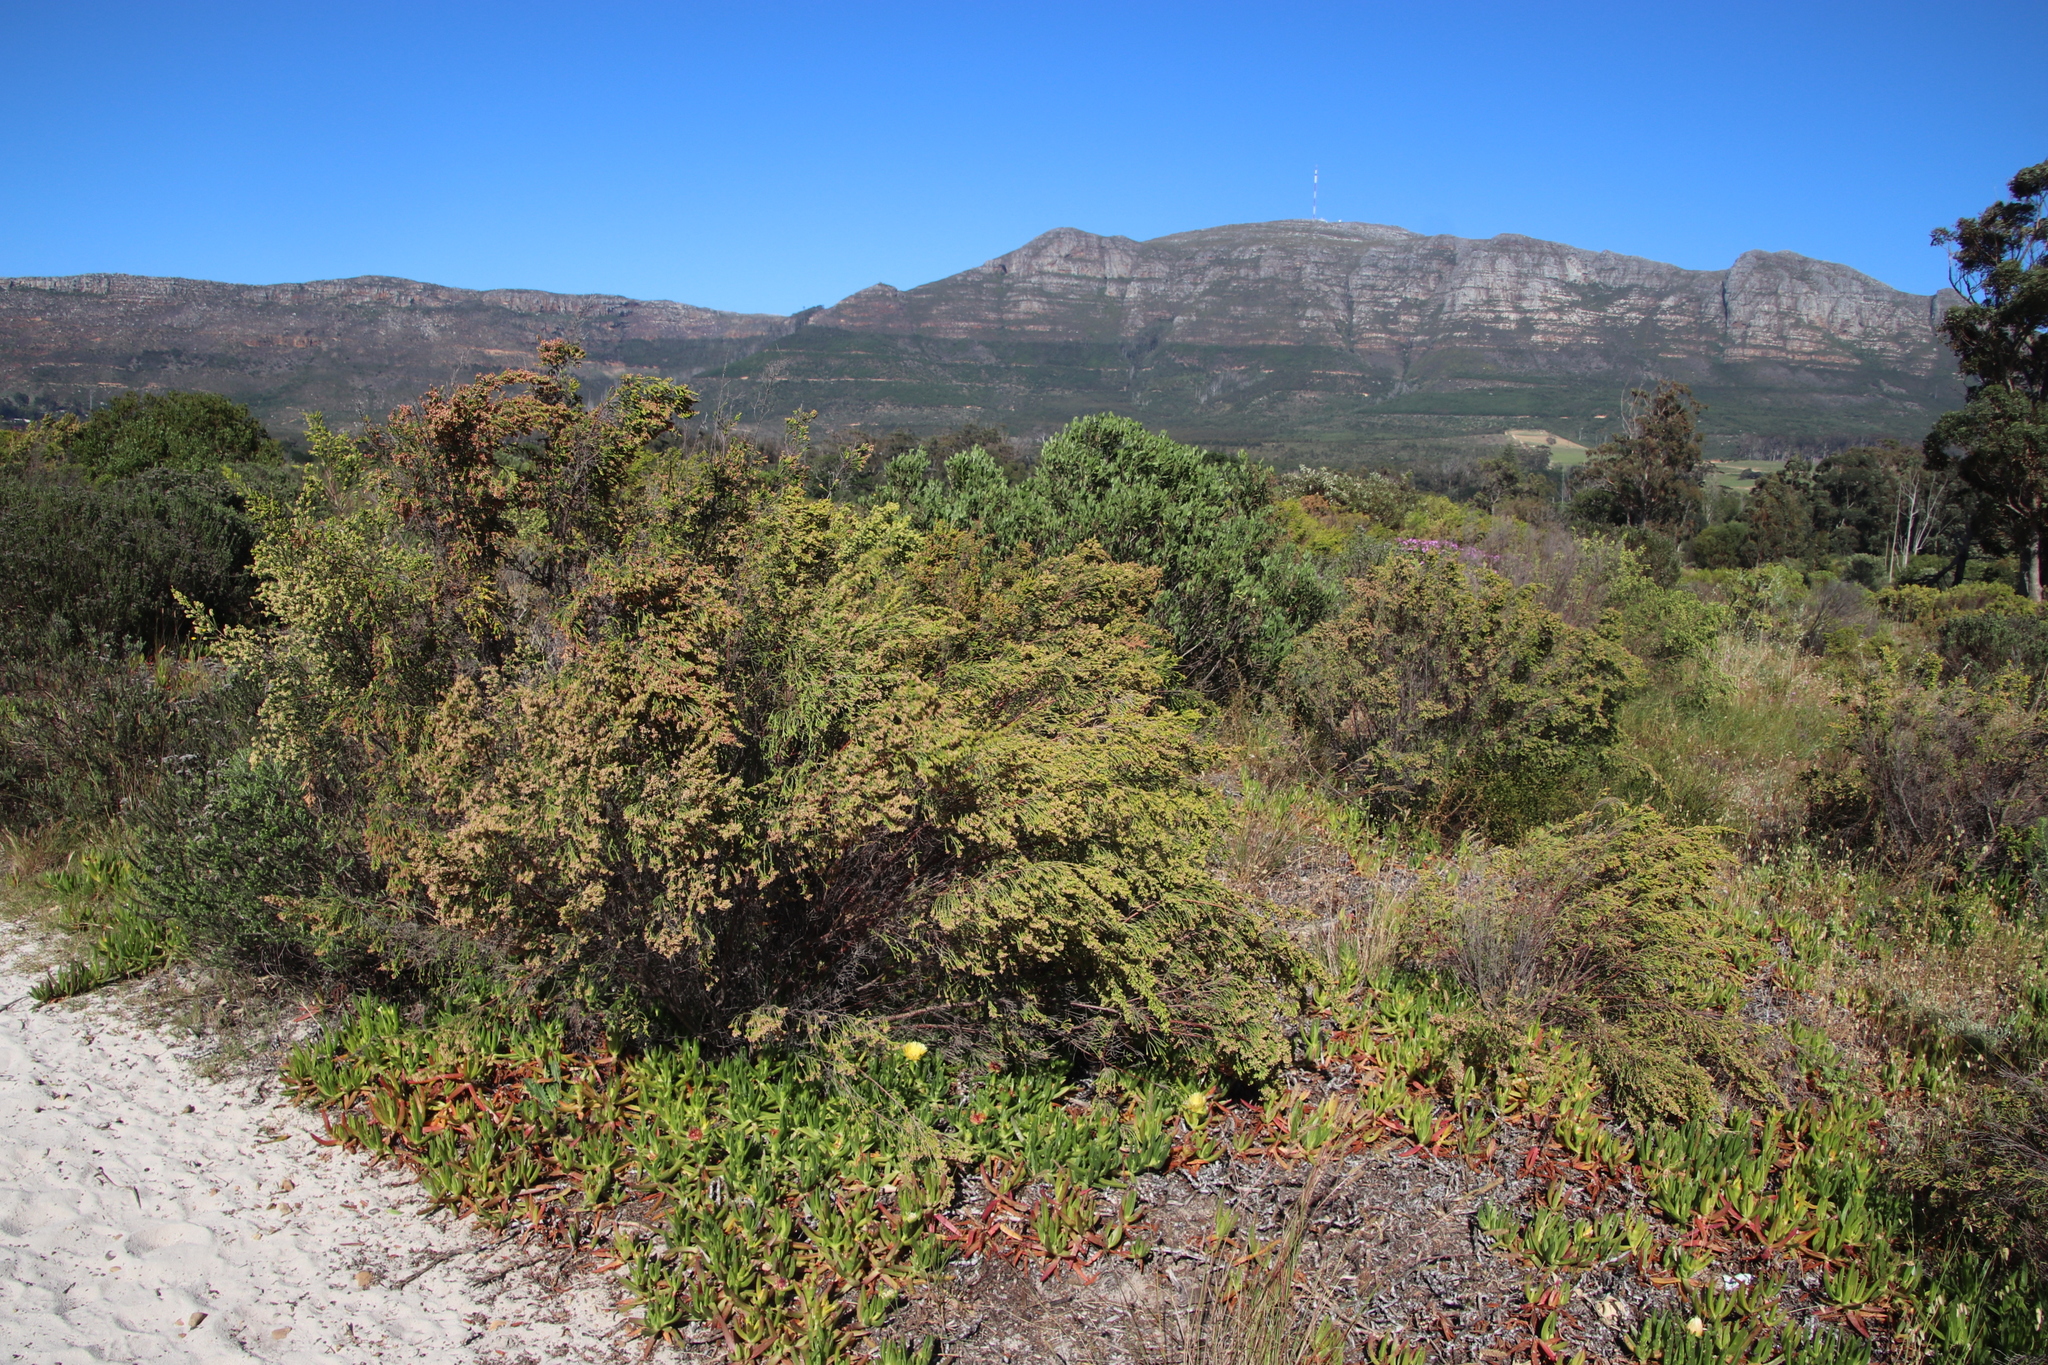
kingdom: Plantae
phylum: Tracheophyta
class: Magnoliopsida
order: Malvales
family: Thymelaeaceae
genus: Passerina
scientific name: Passerina corymbosa
